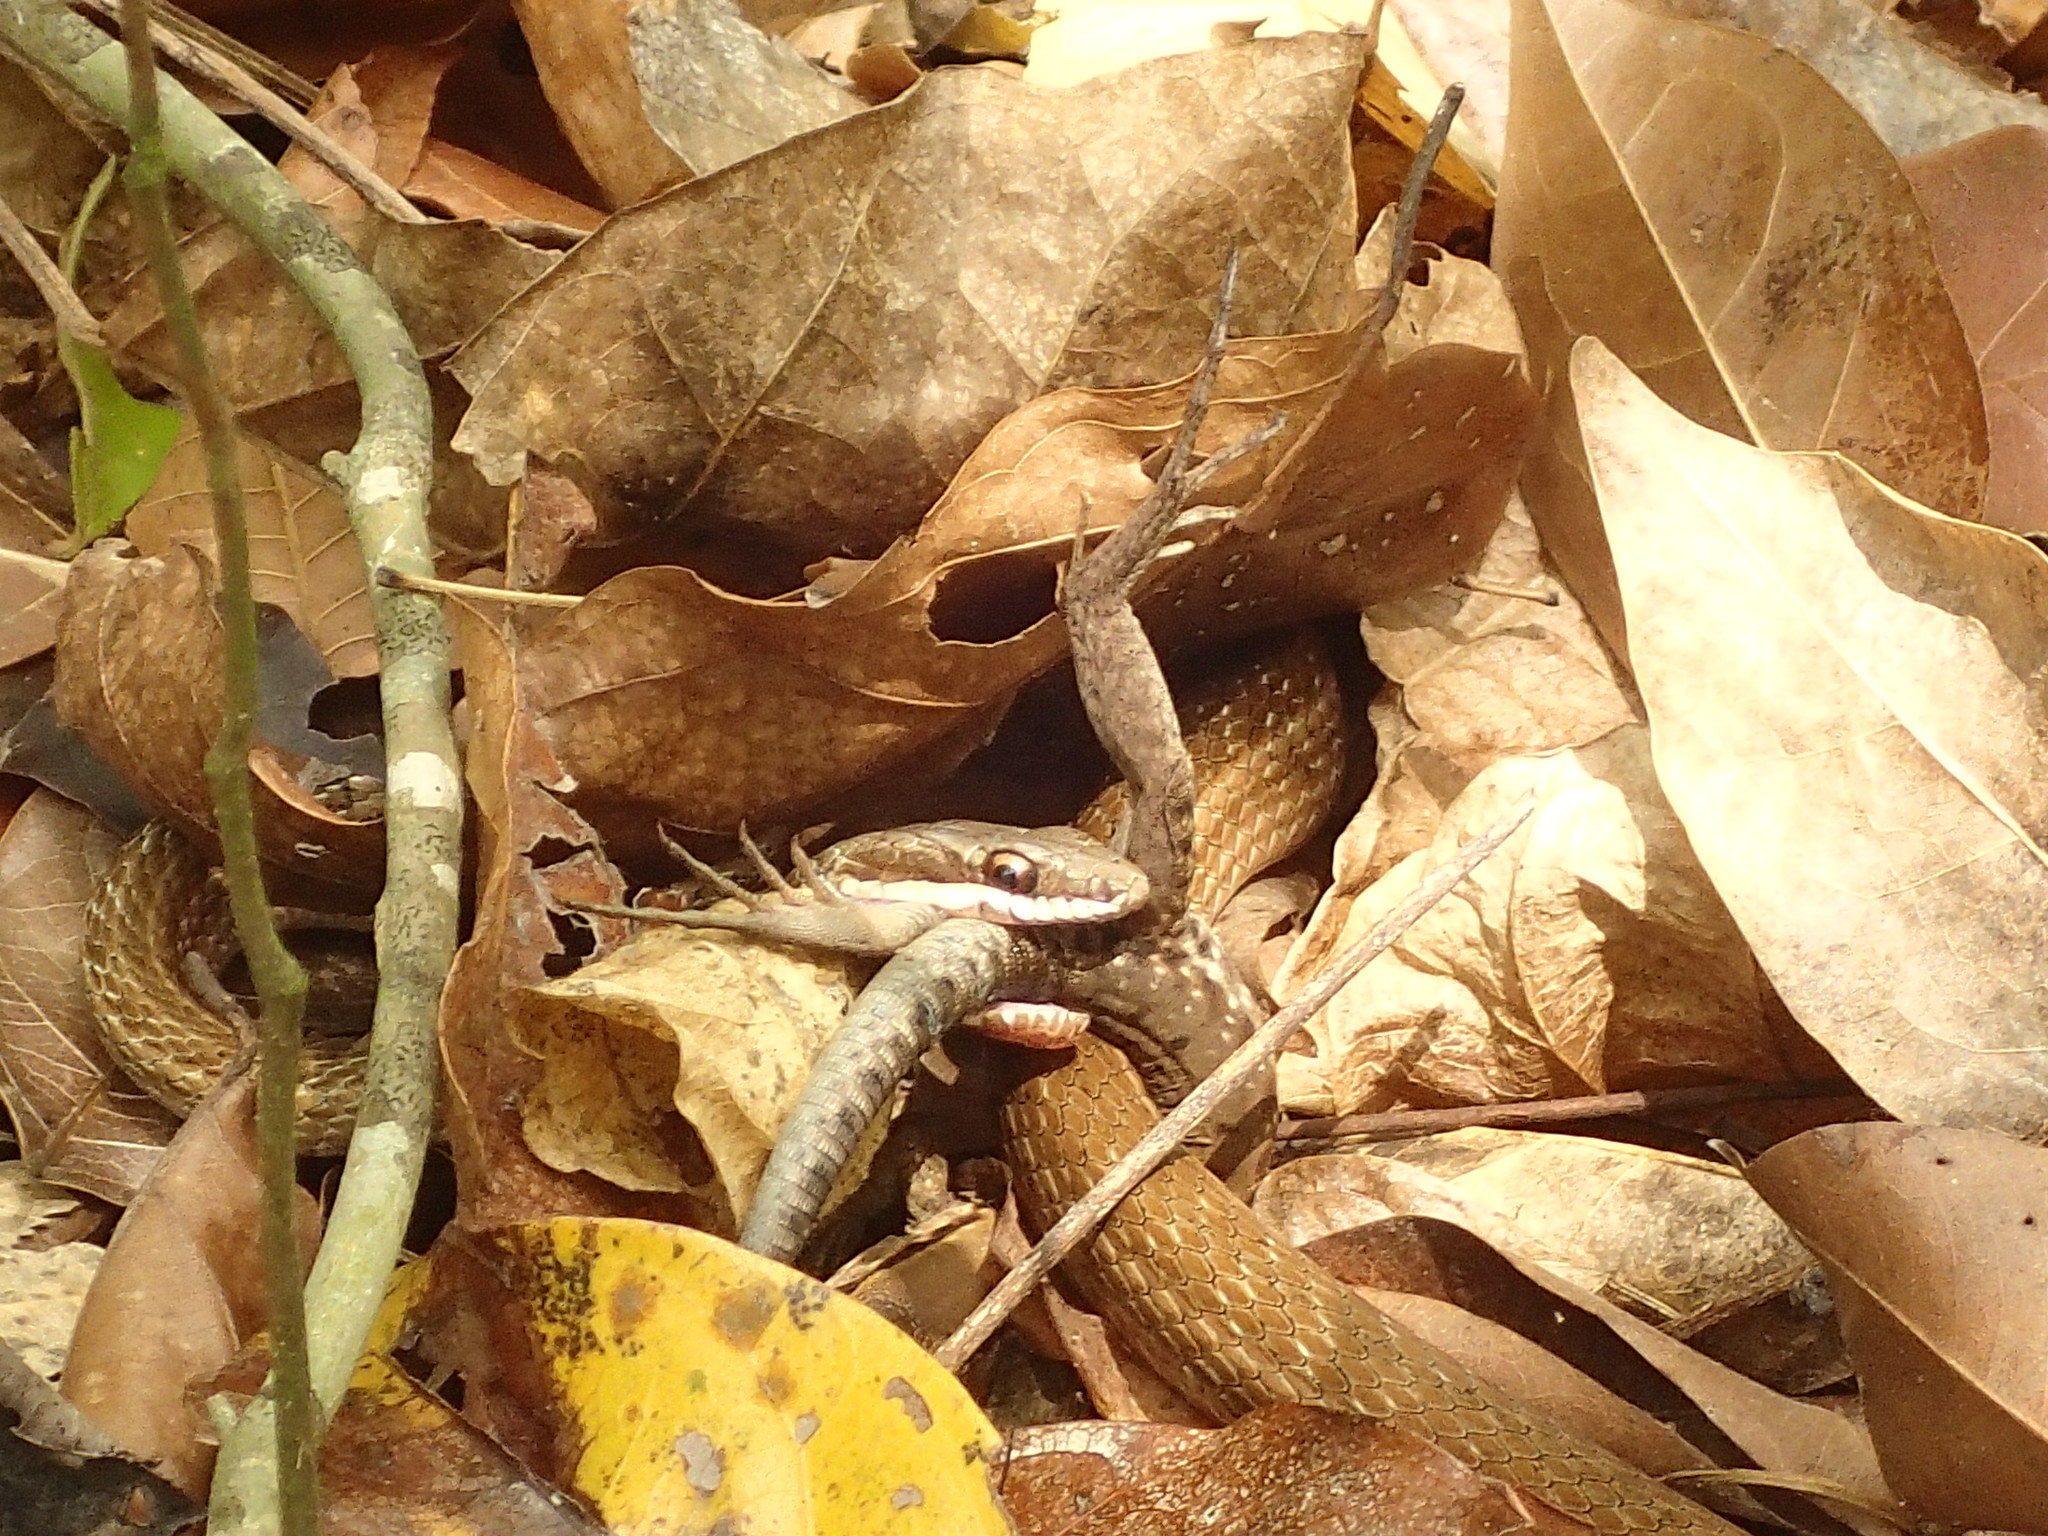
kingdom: Animalia
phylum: Chordata
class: Squamata
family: Colubridae
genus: Mastigodryas
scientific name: Mastigodryas boddaerti
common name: Boddaert's tropical racer
